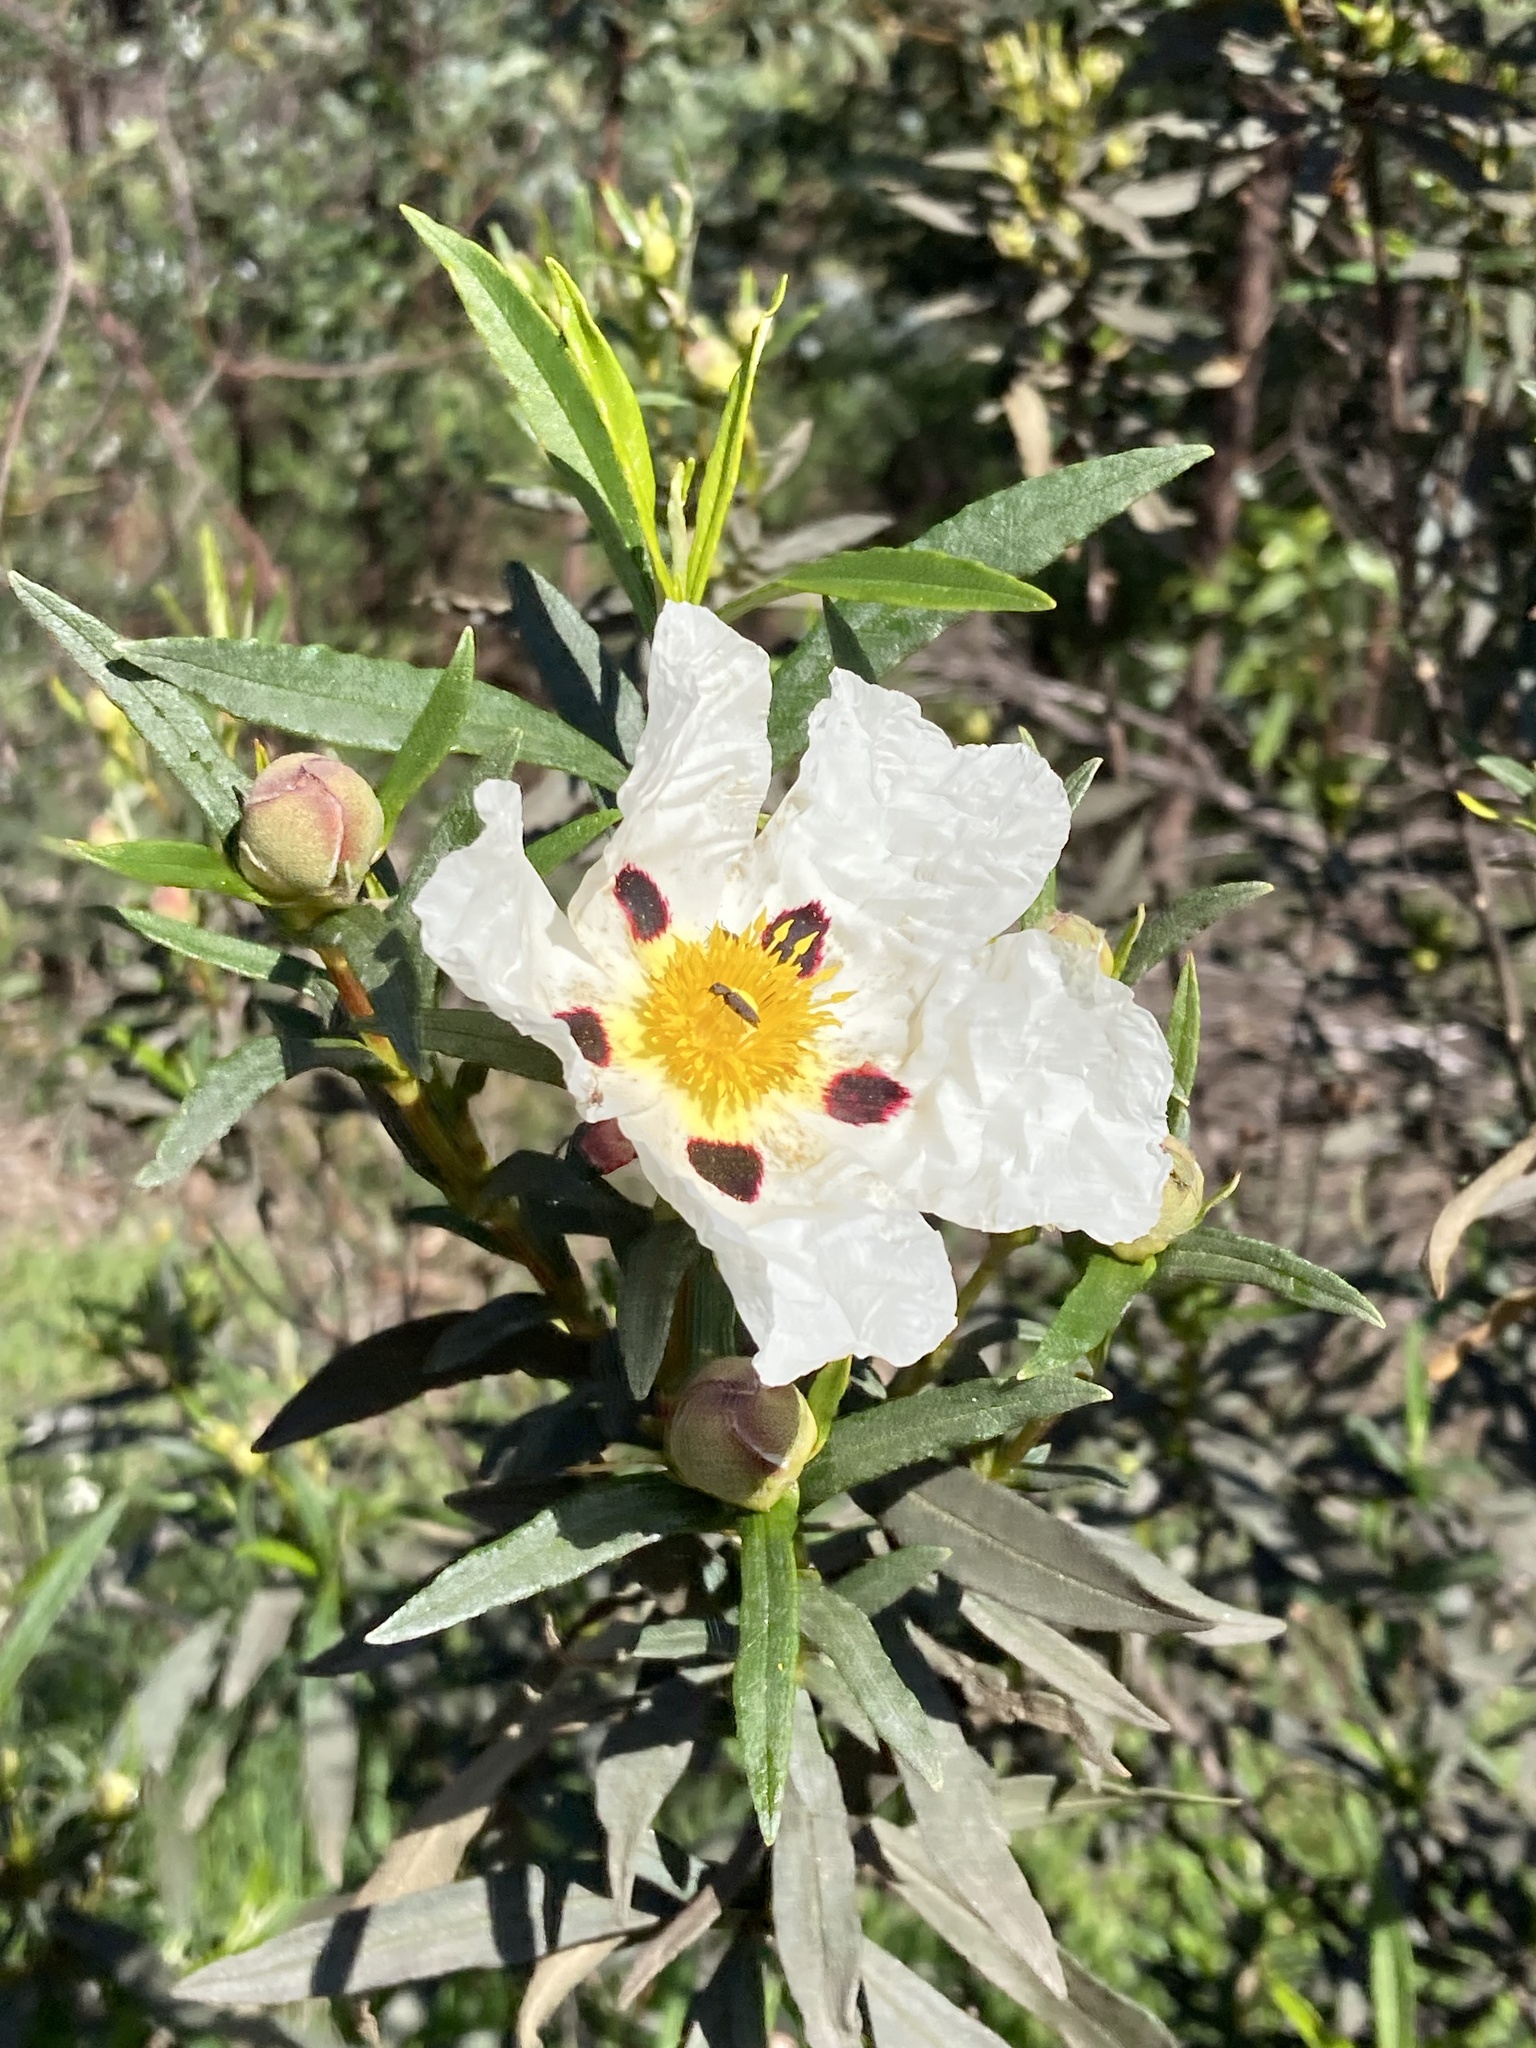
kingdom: Plantae
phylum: Tracheophyta
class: Magnoliopsida
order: Malvales
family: Cistaceae
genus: Cistus
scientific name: Cistus ladanifer
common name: Common gum cistus
